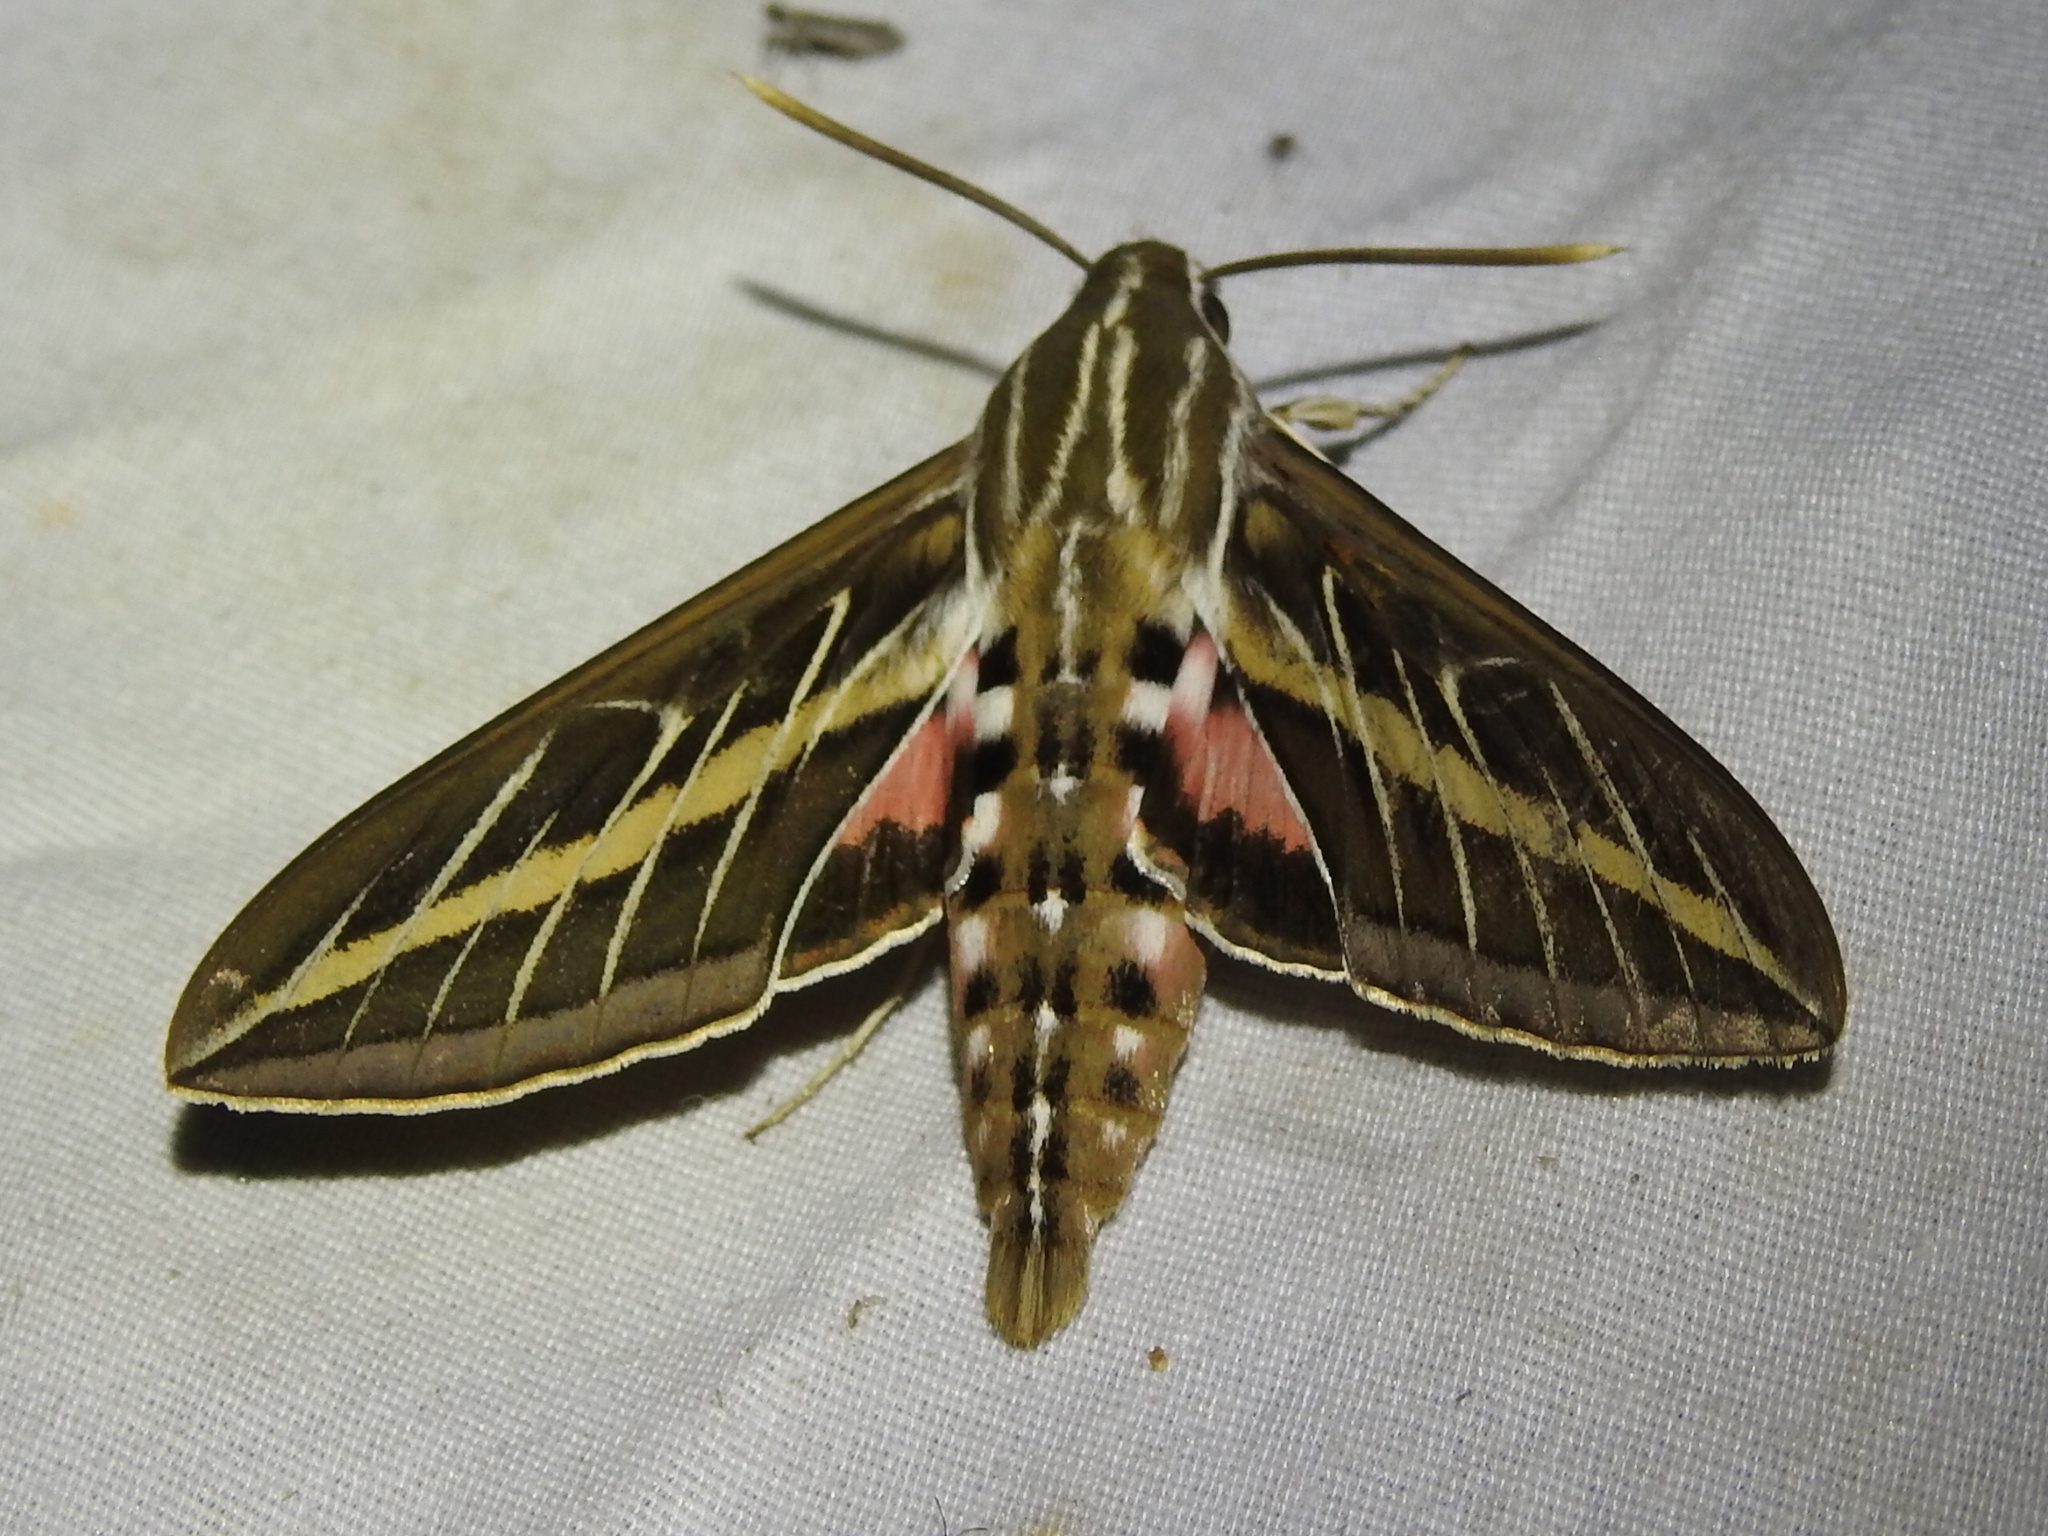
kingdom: Animalia
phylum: Arthropoda
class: Insecta
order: Lepidoptera
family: Sphingidae
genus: Hyles
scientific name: Hyles lineata
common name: White-lined sphinx
